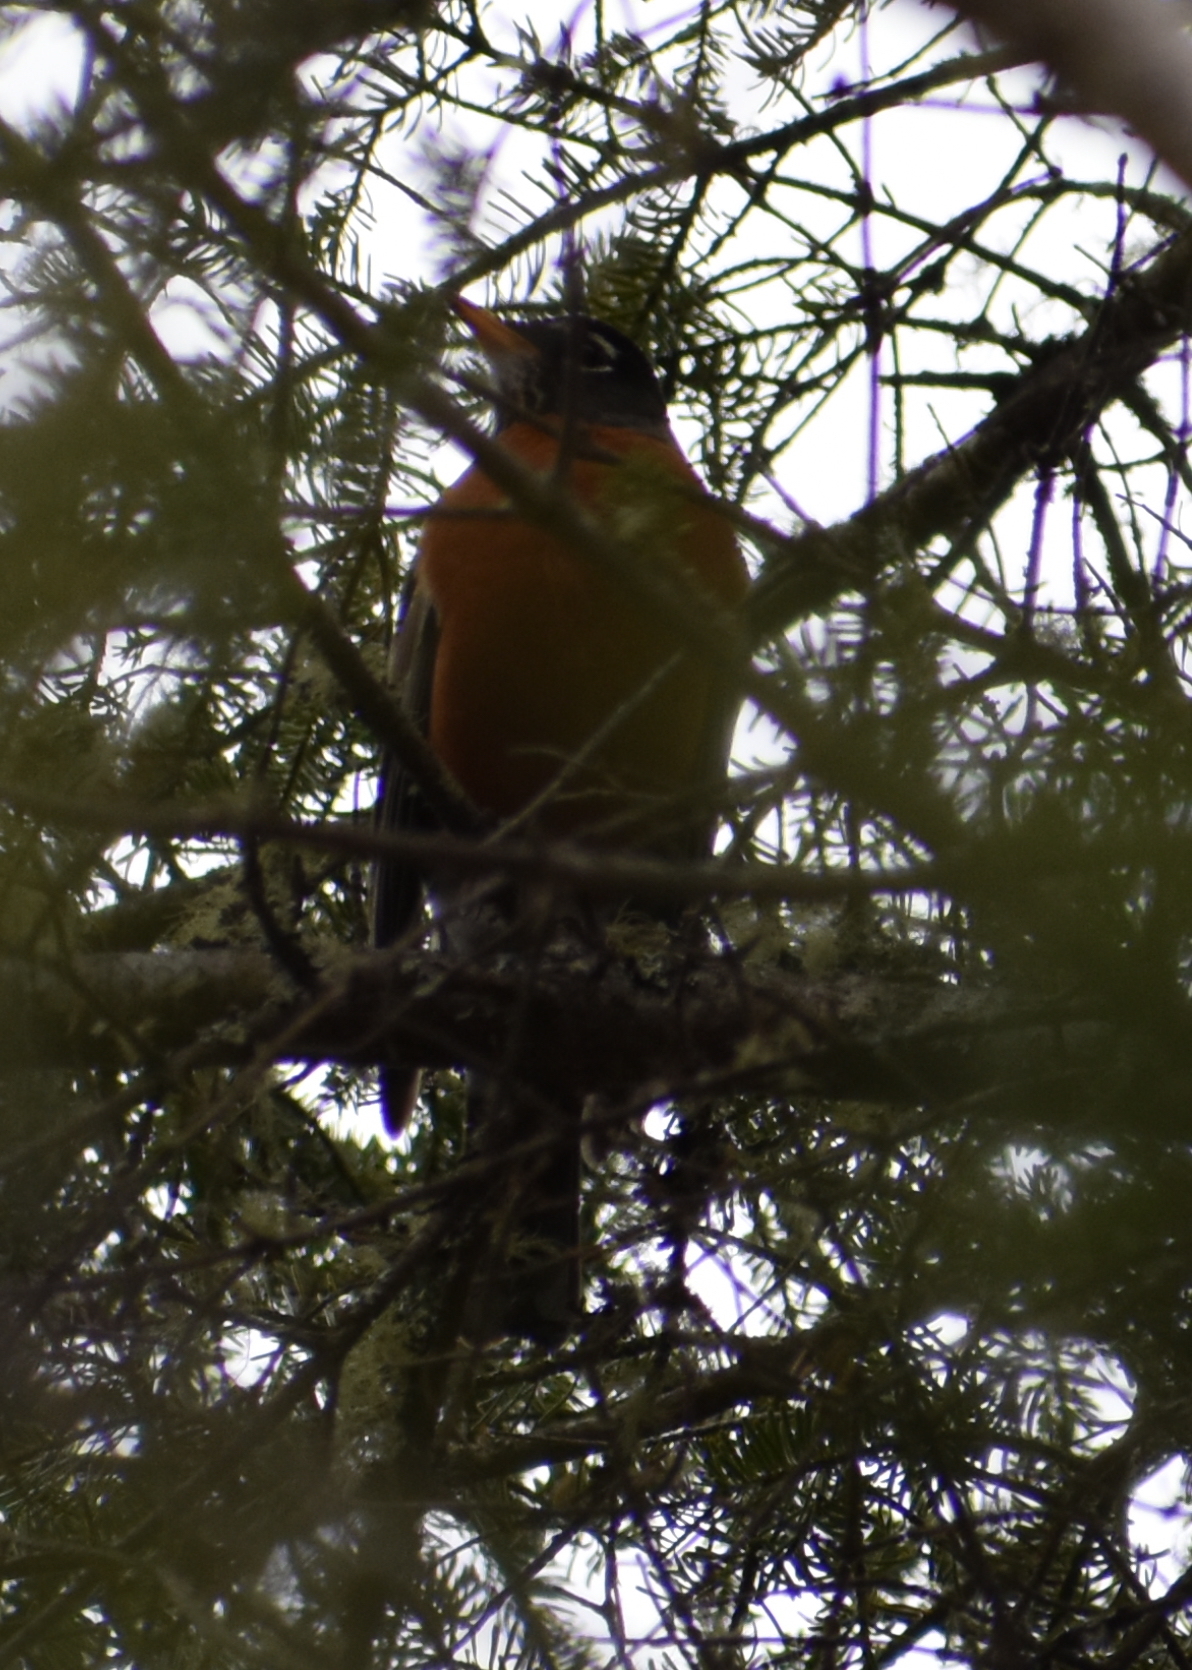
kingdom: Animalia
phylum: Chordata
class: Aves
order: Passeriformes
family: Turdidae
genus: Turdus
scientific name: Turdus migratorius
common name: American robin
